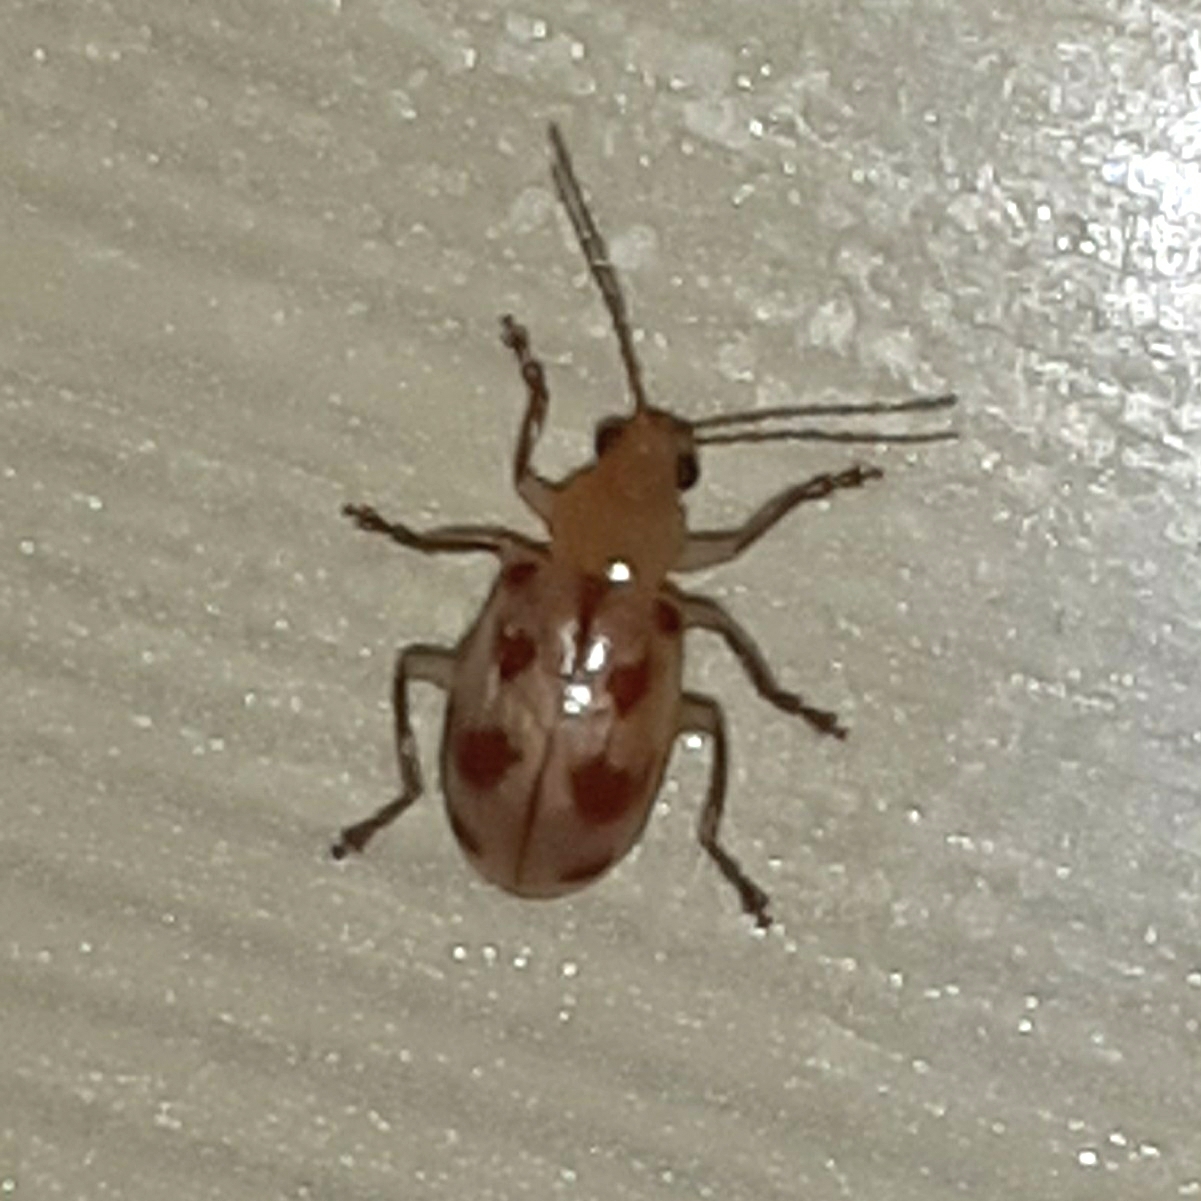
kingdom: Animalia
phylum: Arthropoda
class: Insecta
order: Coleoptera
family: Chrysomelidae
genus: Malacorhinus
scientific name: Malacorhinus
